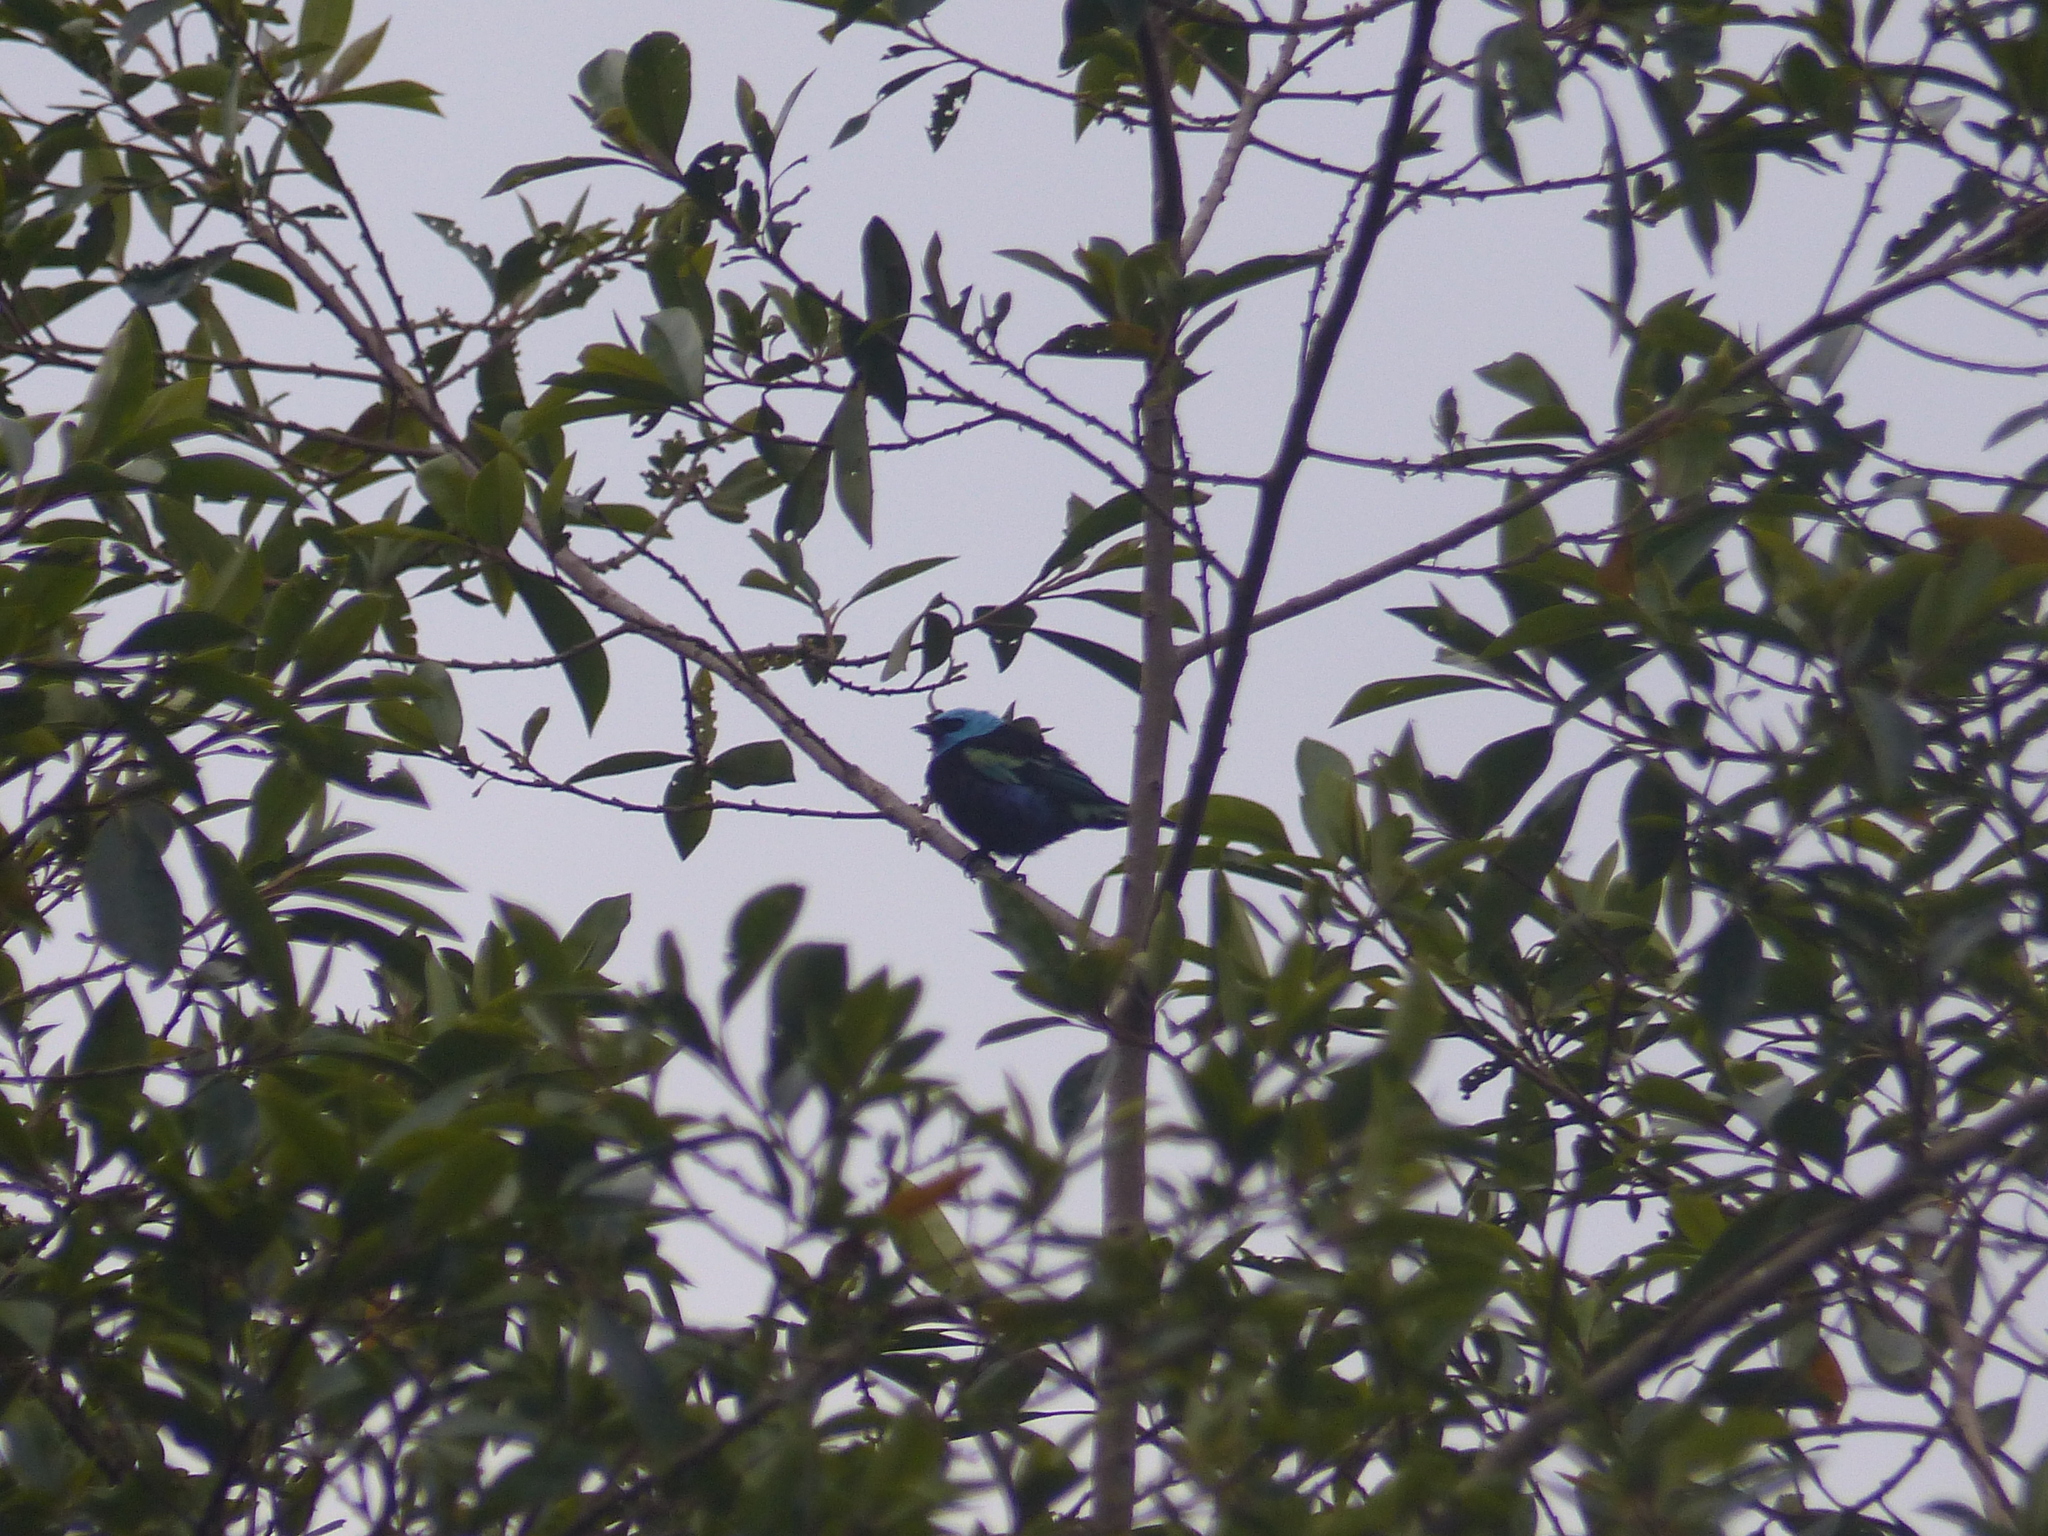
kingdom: Animalia
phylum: Chordata
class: Aves
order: Passeriformes
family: Thraupidae
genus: Stilpnia
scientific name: Stilpnia cyanicollis
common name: Blue-necked tanager
